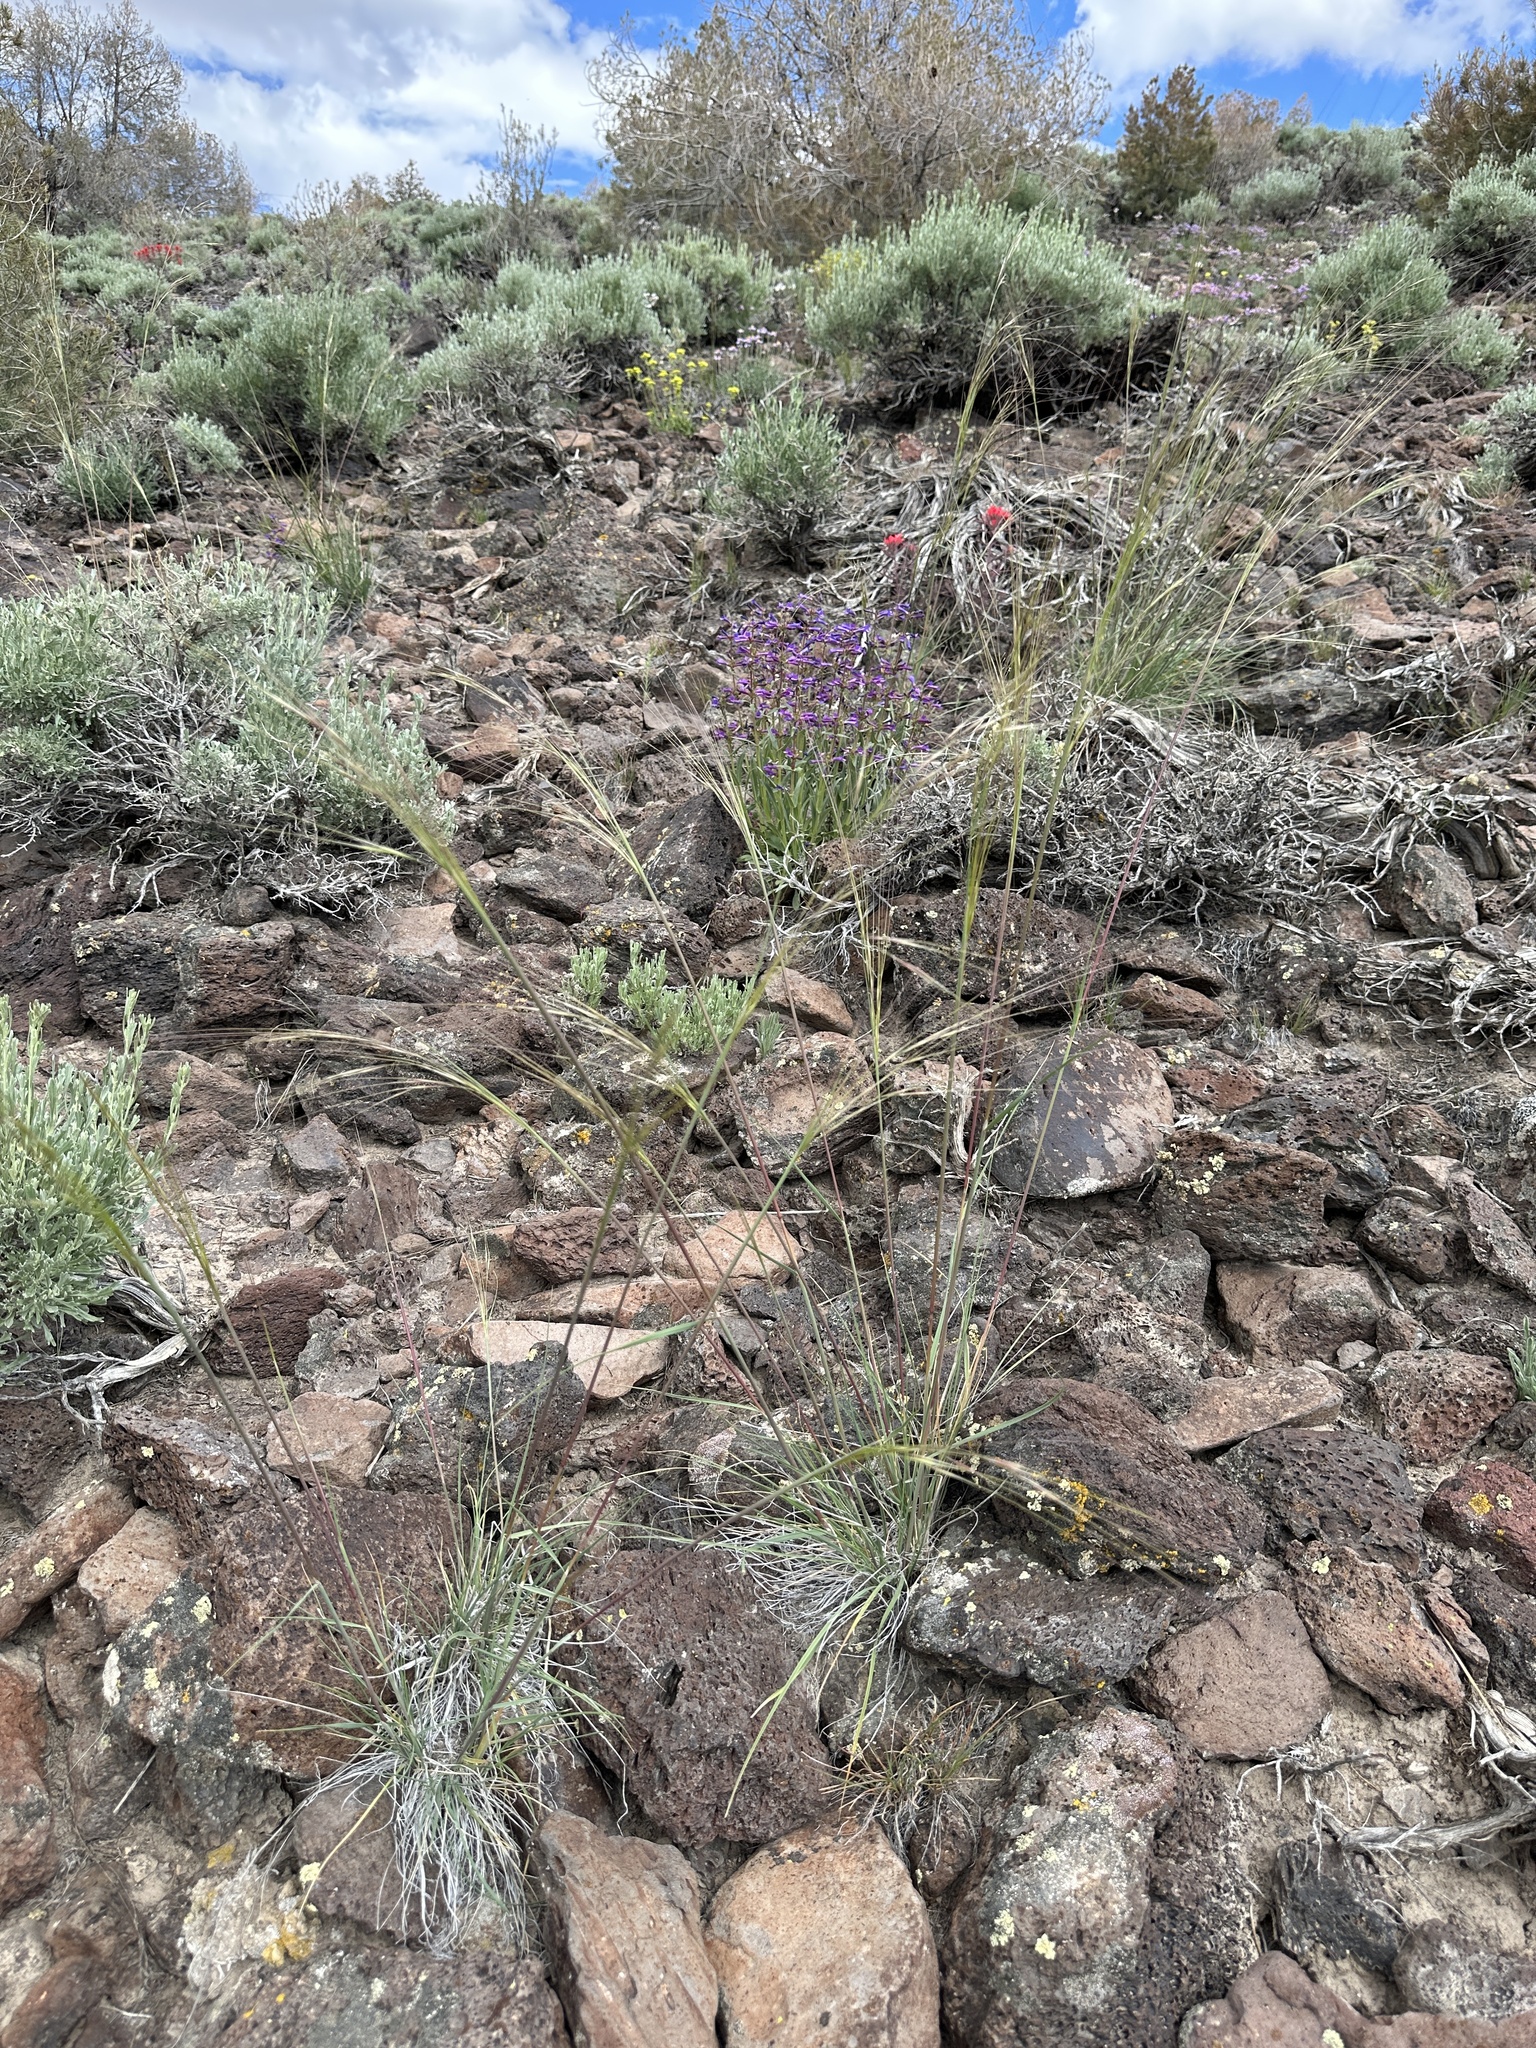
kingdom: Plantae
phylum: Tracheophyta
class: Liliopsida
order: Poales
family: Poaceae
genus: Hesperostipa
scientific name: Hesperostipa comata
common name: Needle-and-thread grass
